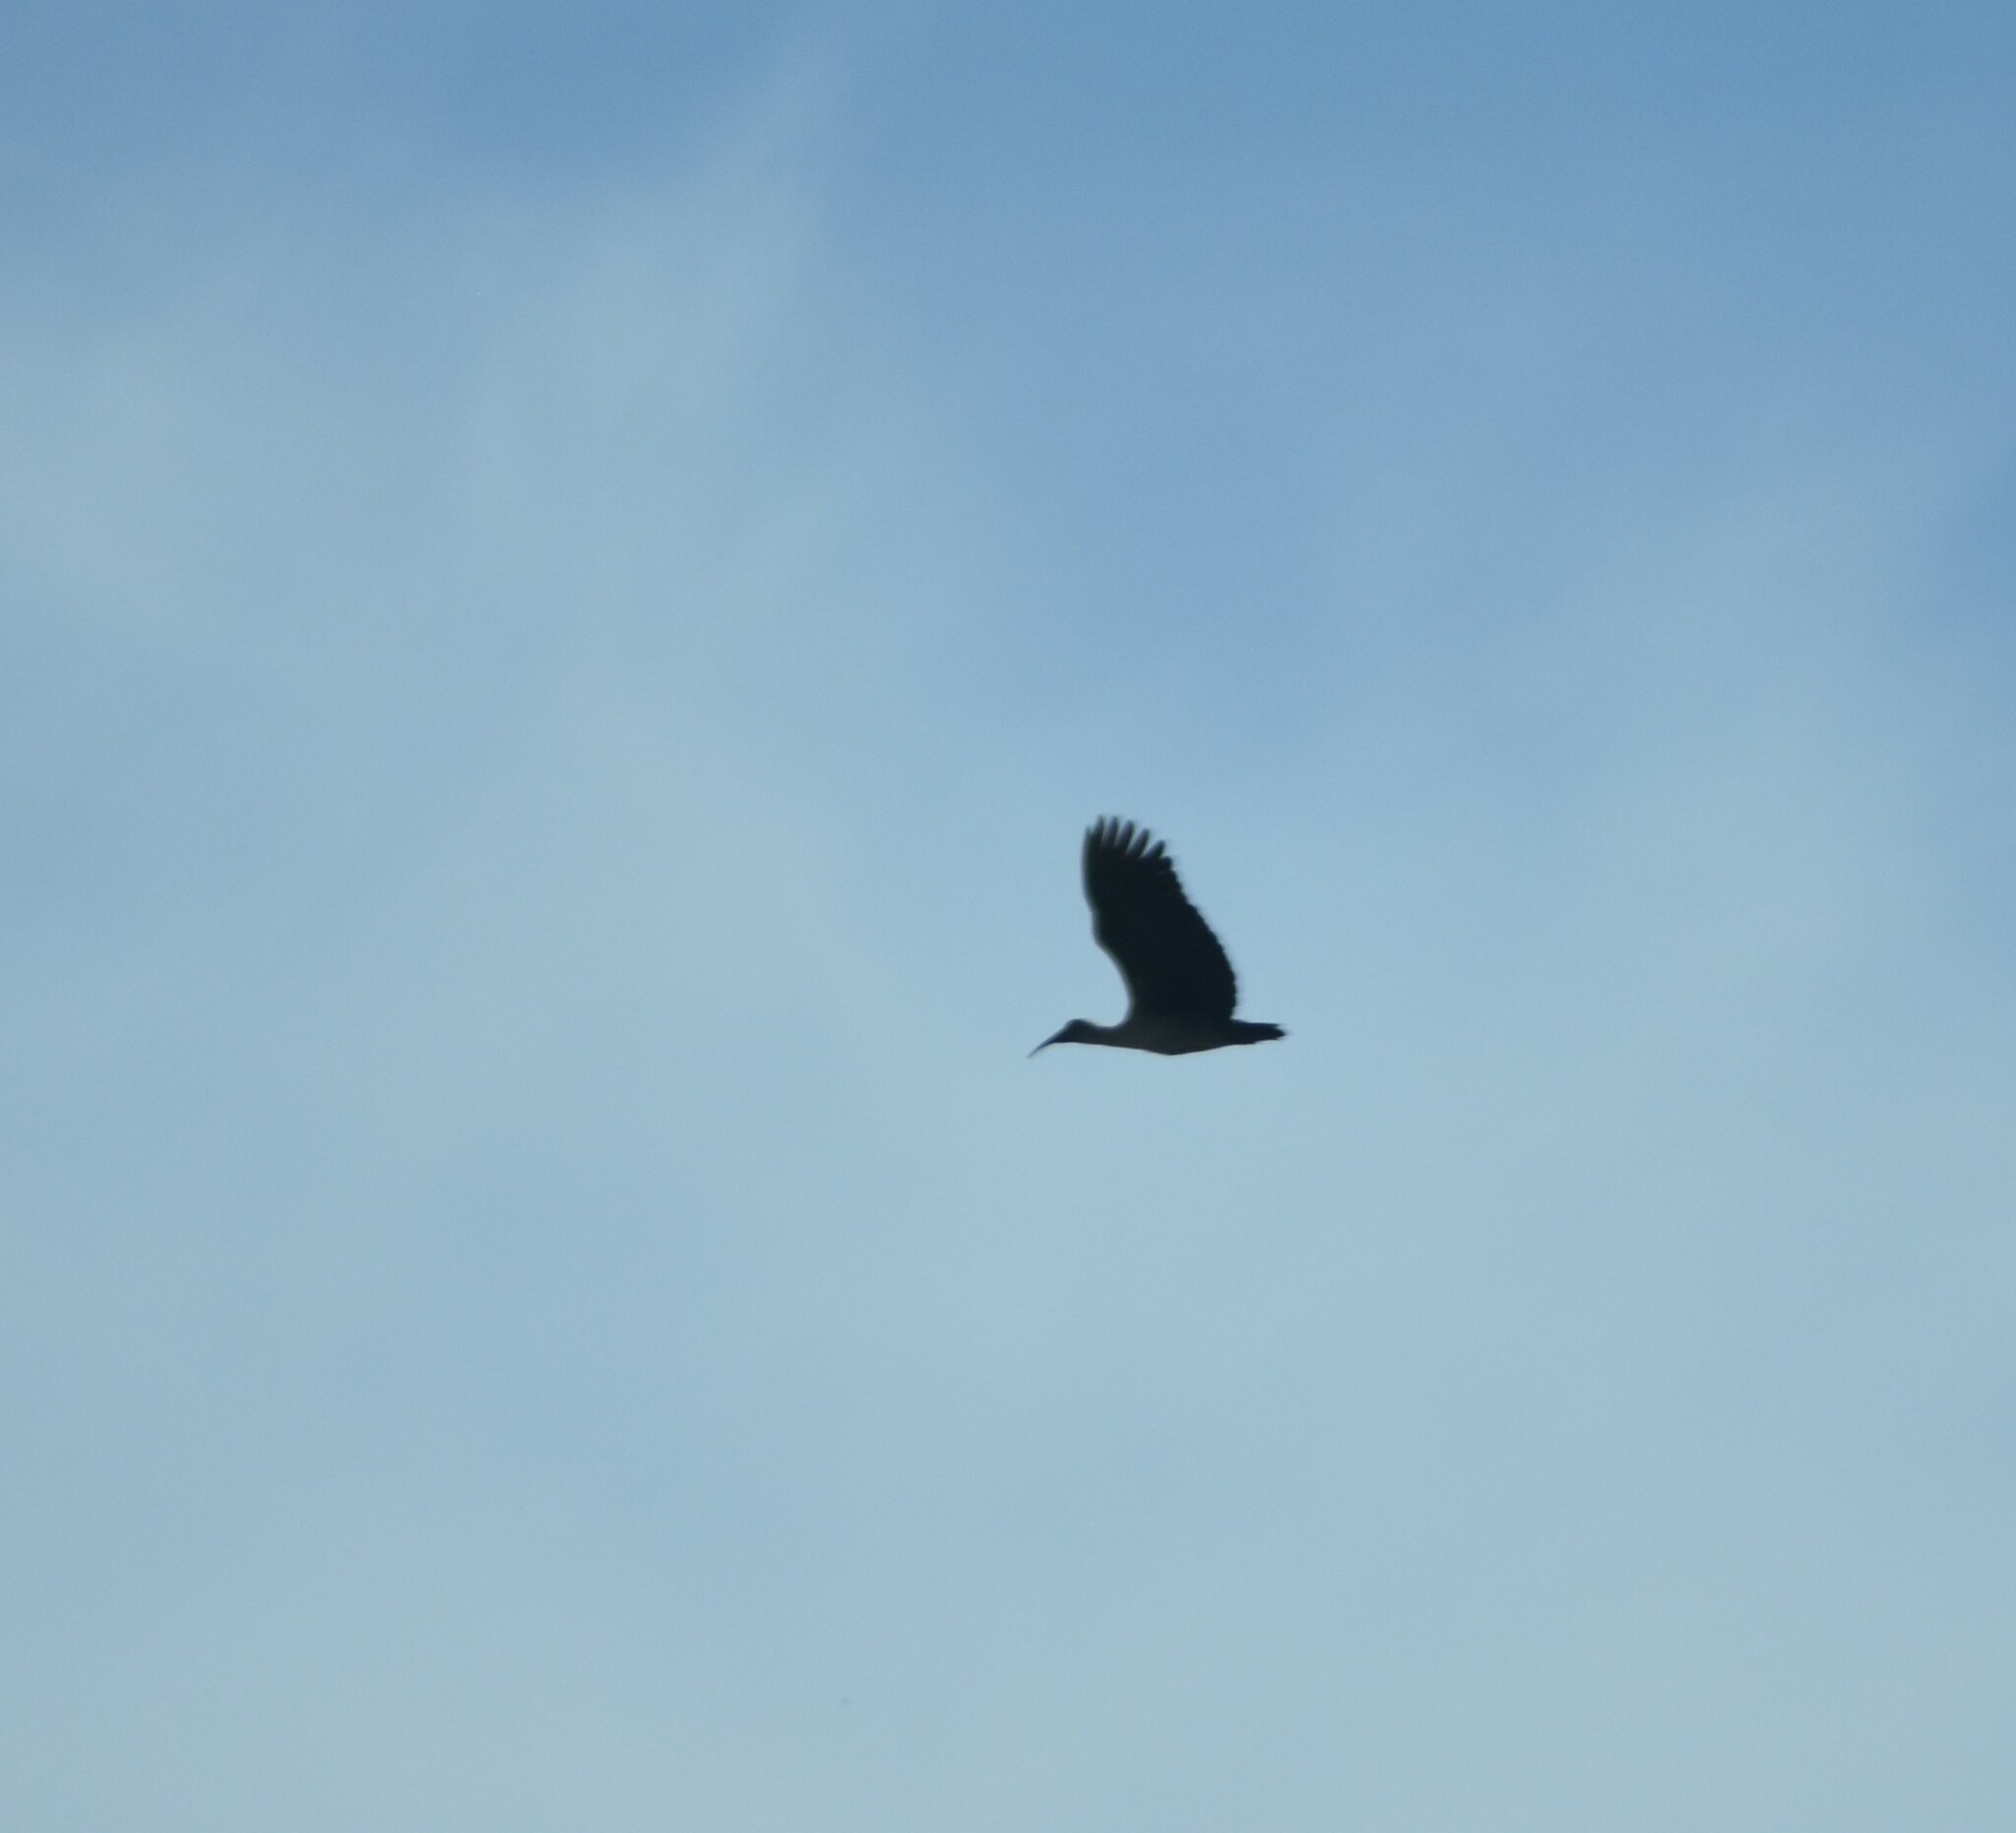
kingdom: Animalia
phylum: Chordata
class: Aves
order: Pelecaniformes
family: Threskiornithidae
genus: Bostrychia
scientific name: Bostrychia hagedash
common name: Hadada ibis
